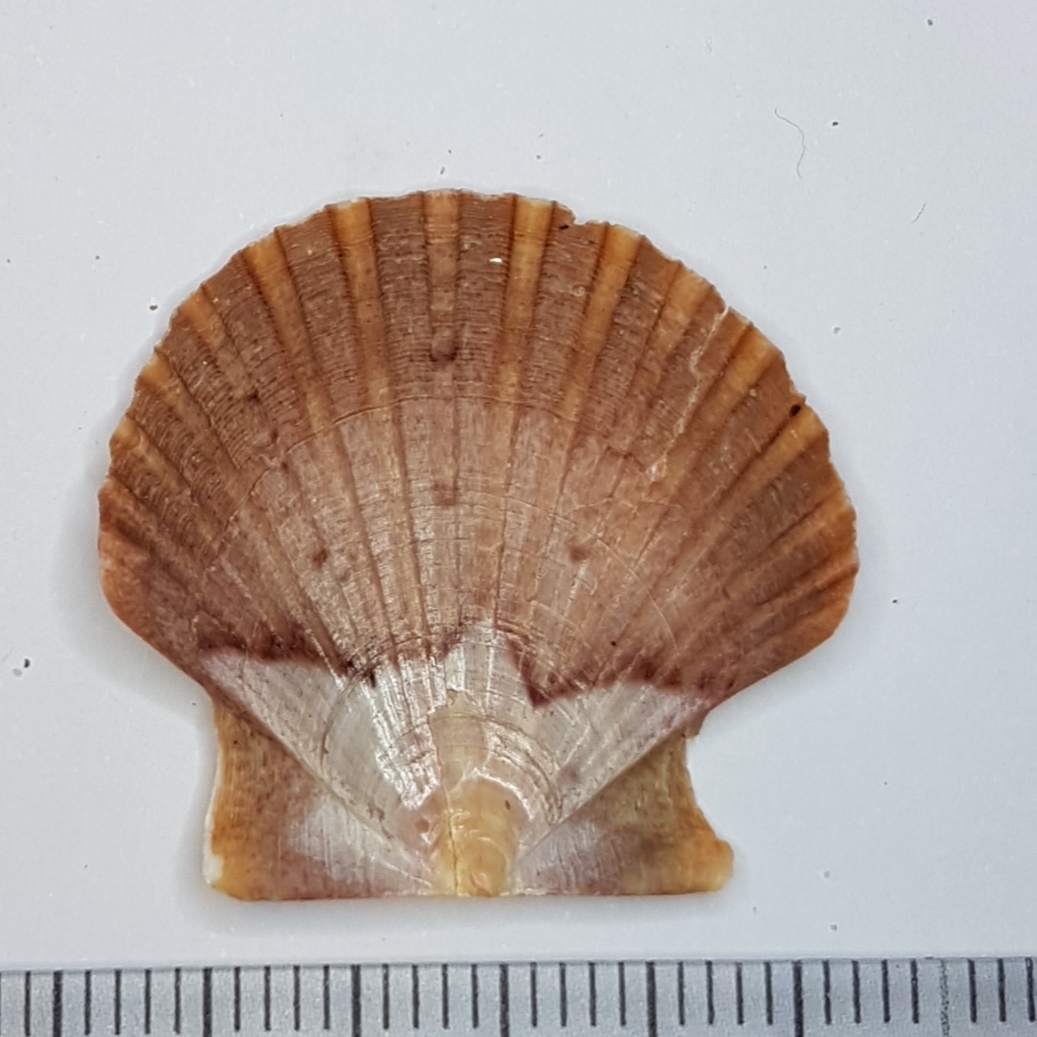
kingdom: Animalia
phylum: Mollusca
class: Bivalvia
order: Pectinida
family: Pectinidae
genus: Pecten
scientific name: Pecten jacobaeus
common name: St.james's scallop
